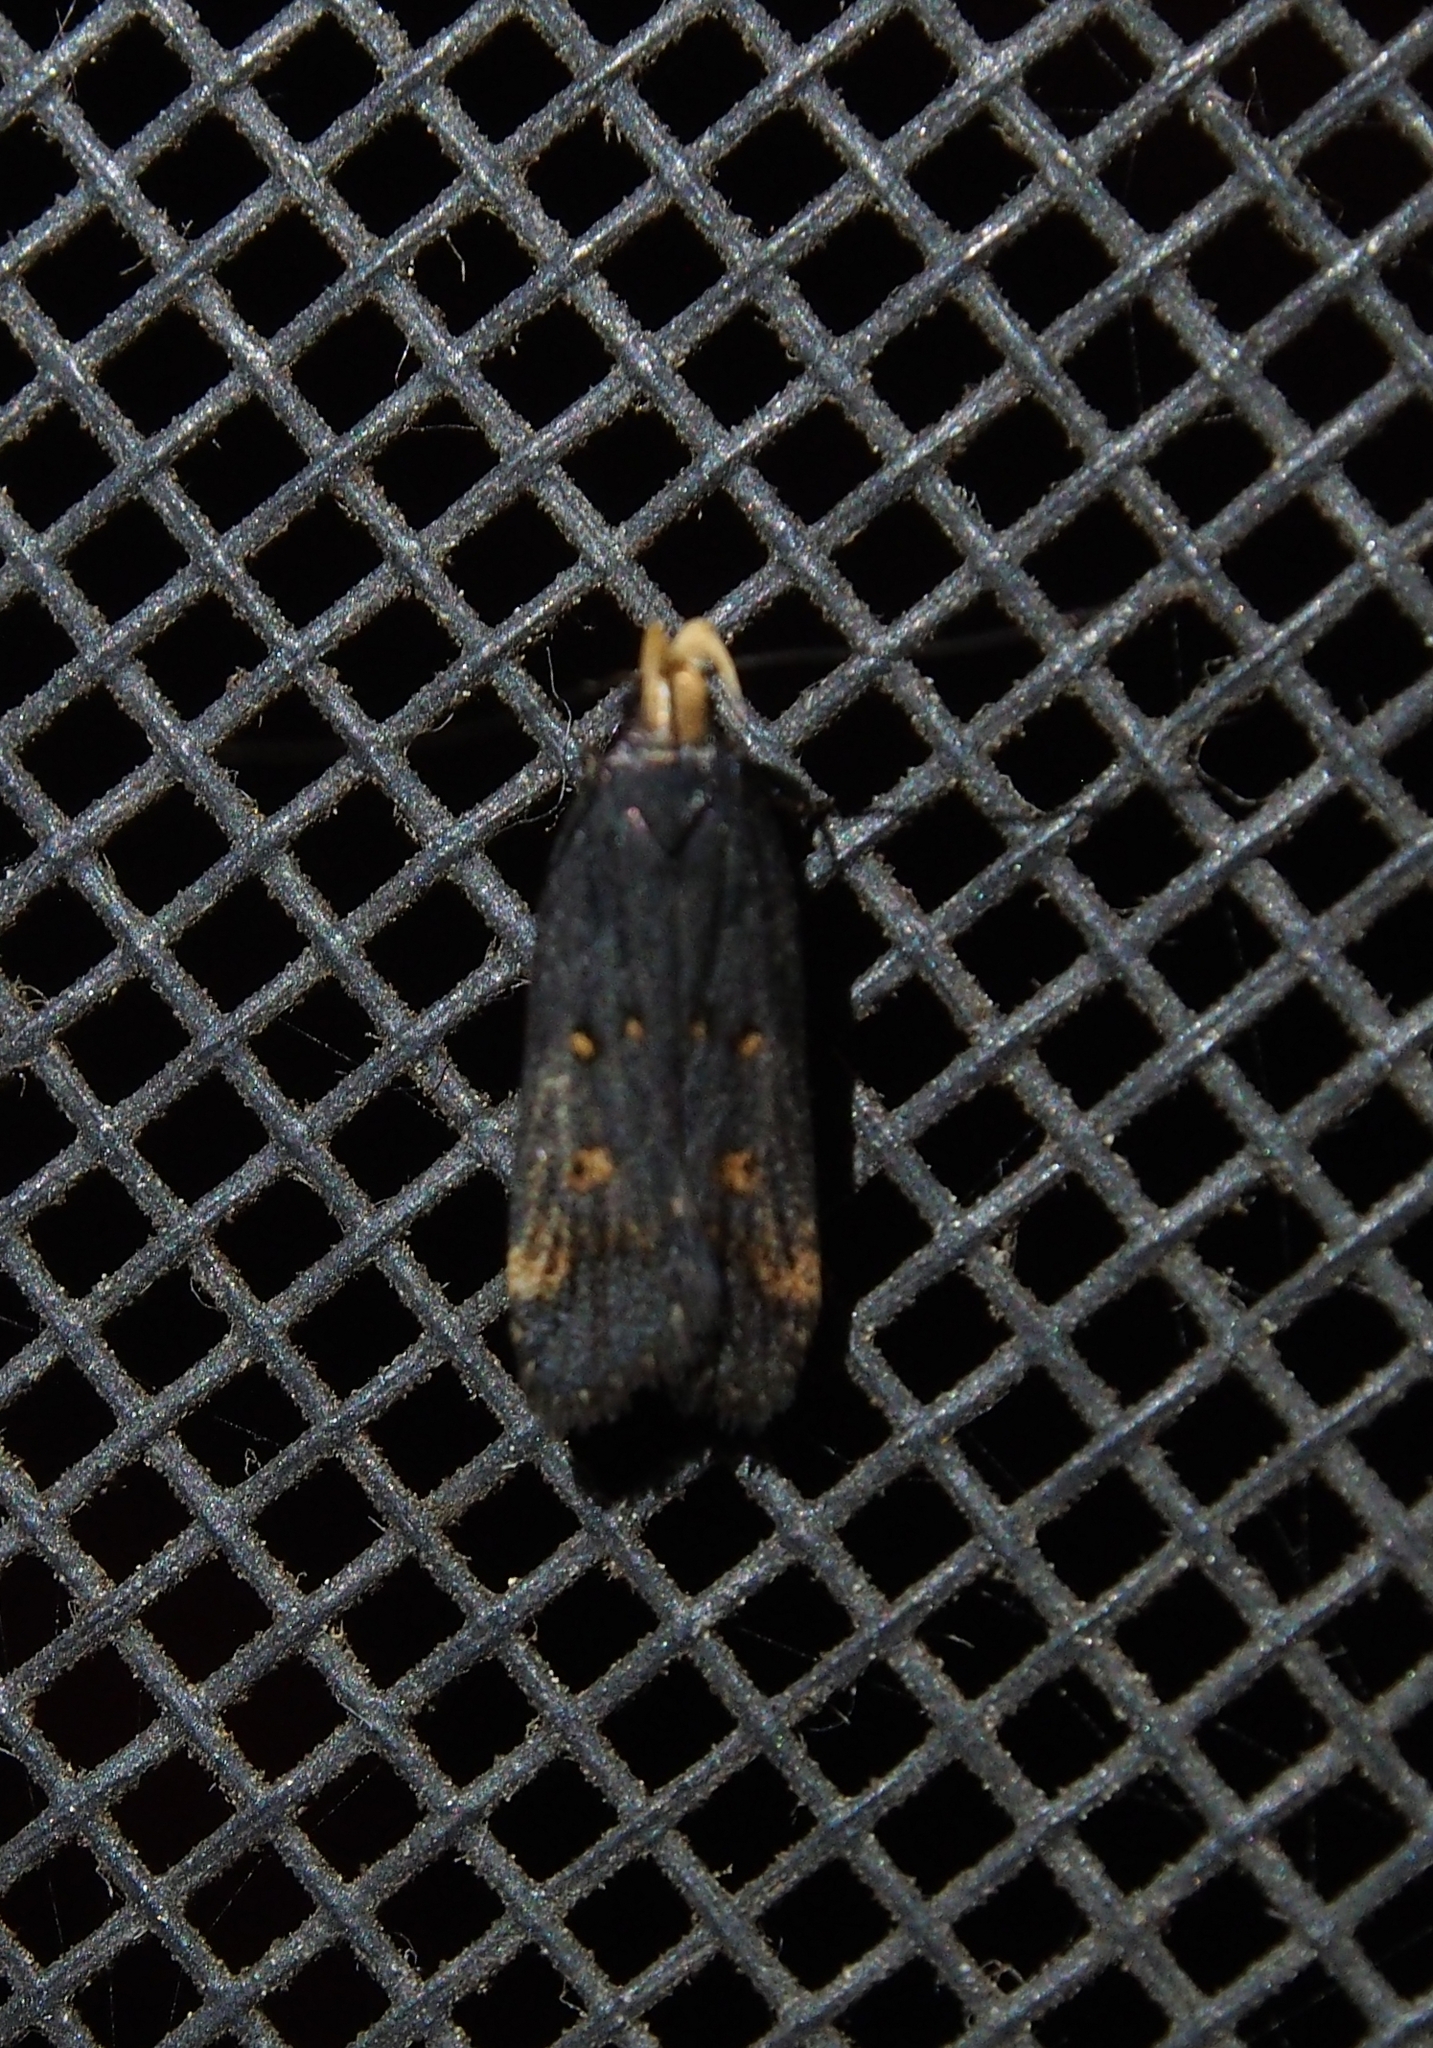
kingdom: Animalia
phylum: Arthropoda
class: Insecta
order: Lepidoptera
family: Gelechiidae
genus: Dichomeris
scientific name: Dichomeris offula
